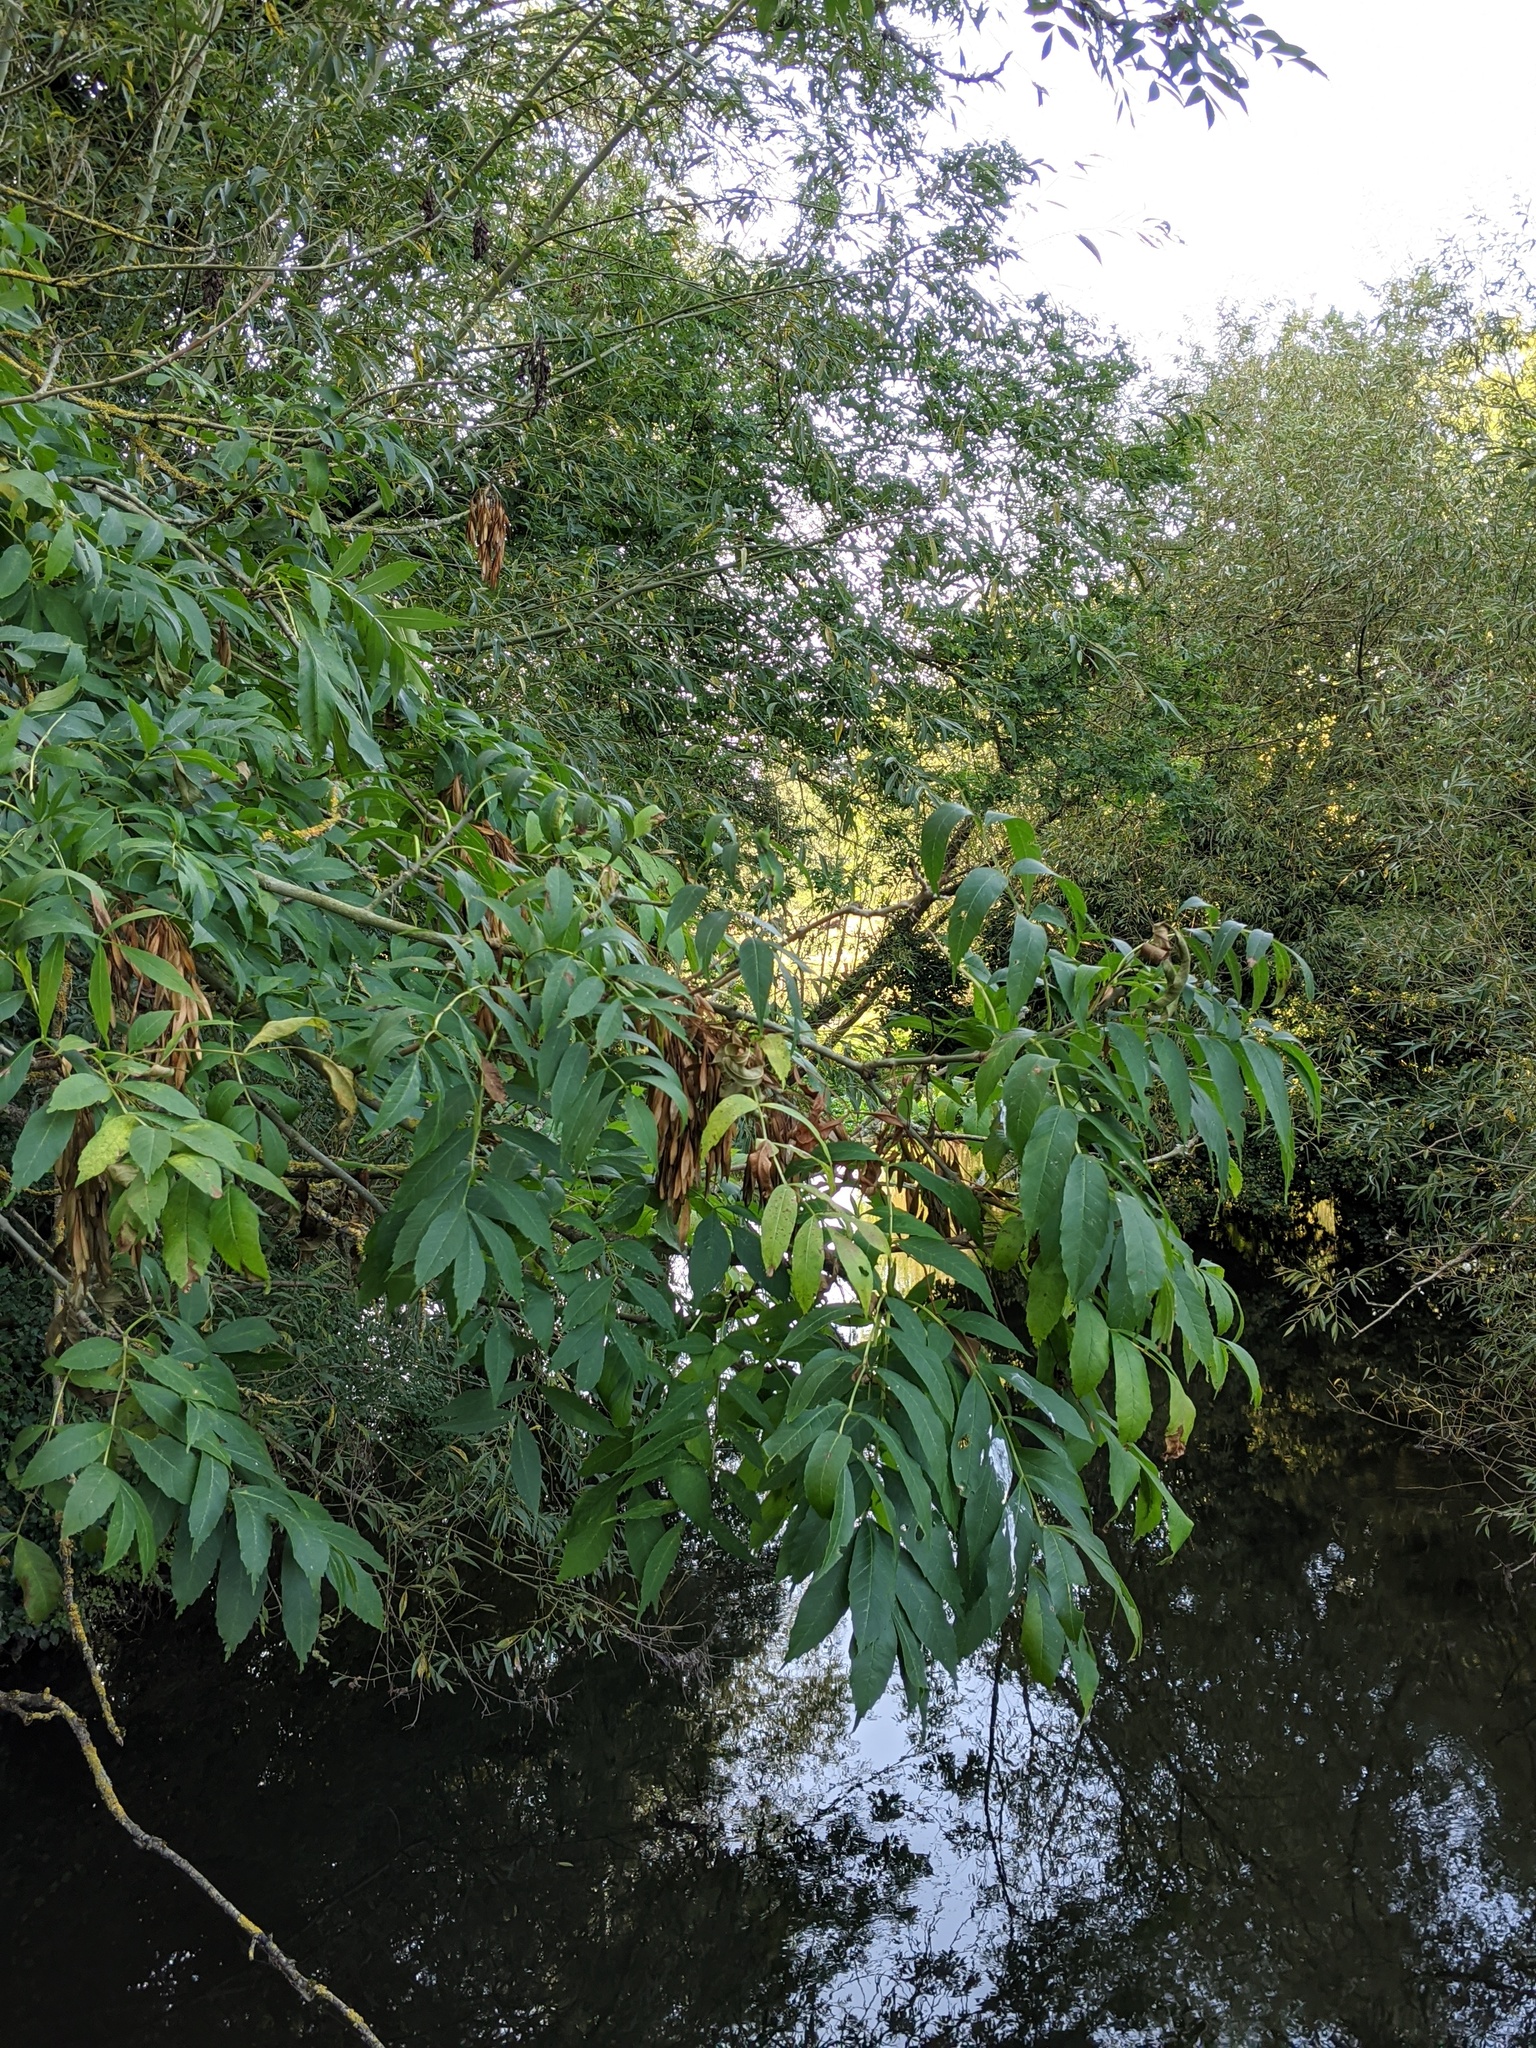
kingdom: Plantae
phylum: Tracheophyta
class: Magnoliopsida
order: Lamiales
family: Oleaceae
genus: Fraxinus
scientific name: Fraxinus excelsior
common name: European ash
